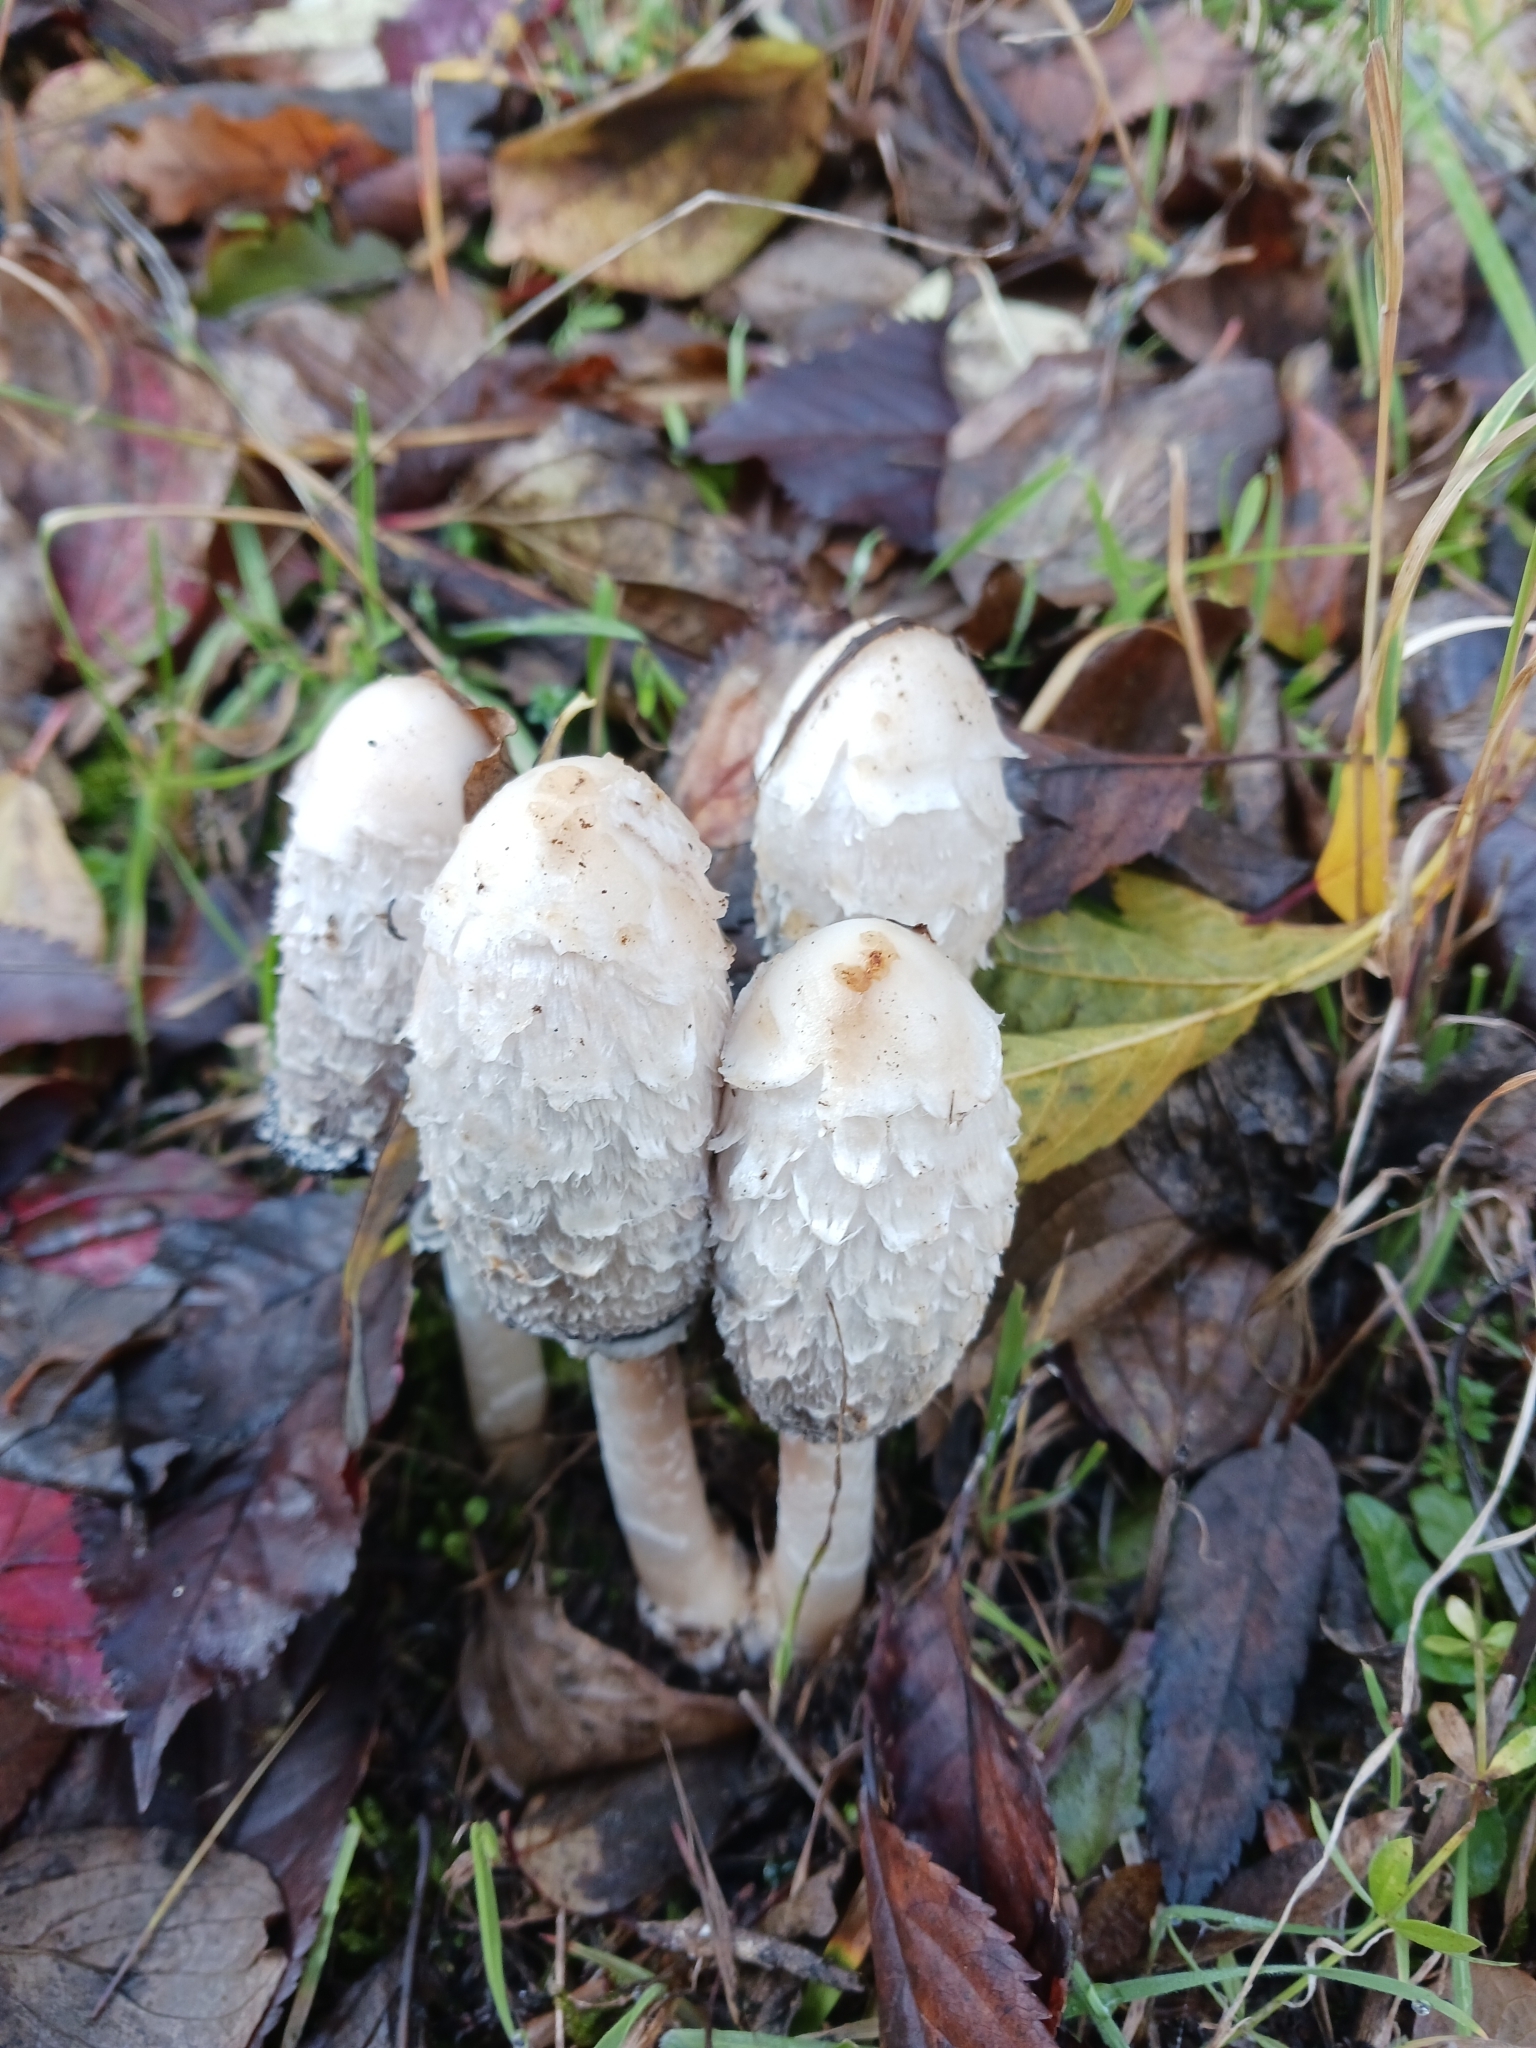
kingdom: Fungi
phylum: Basidiomycota
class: Agaricomycetes
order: Agaricales
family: Agaricaceae
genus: Coprinus
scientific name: Coprinus comatus
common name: Lawyer's wig
